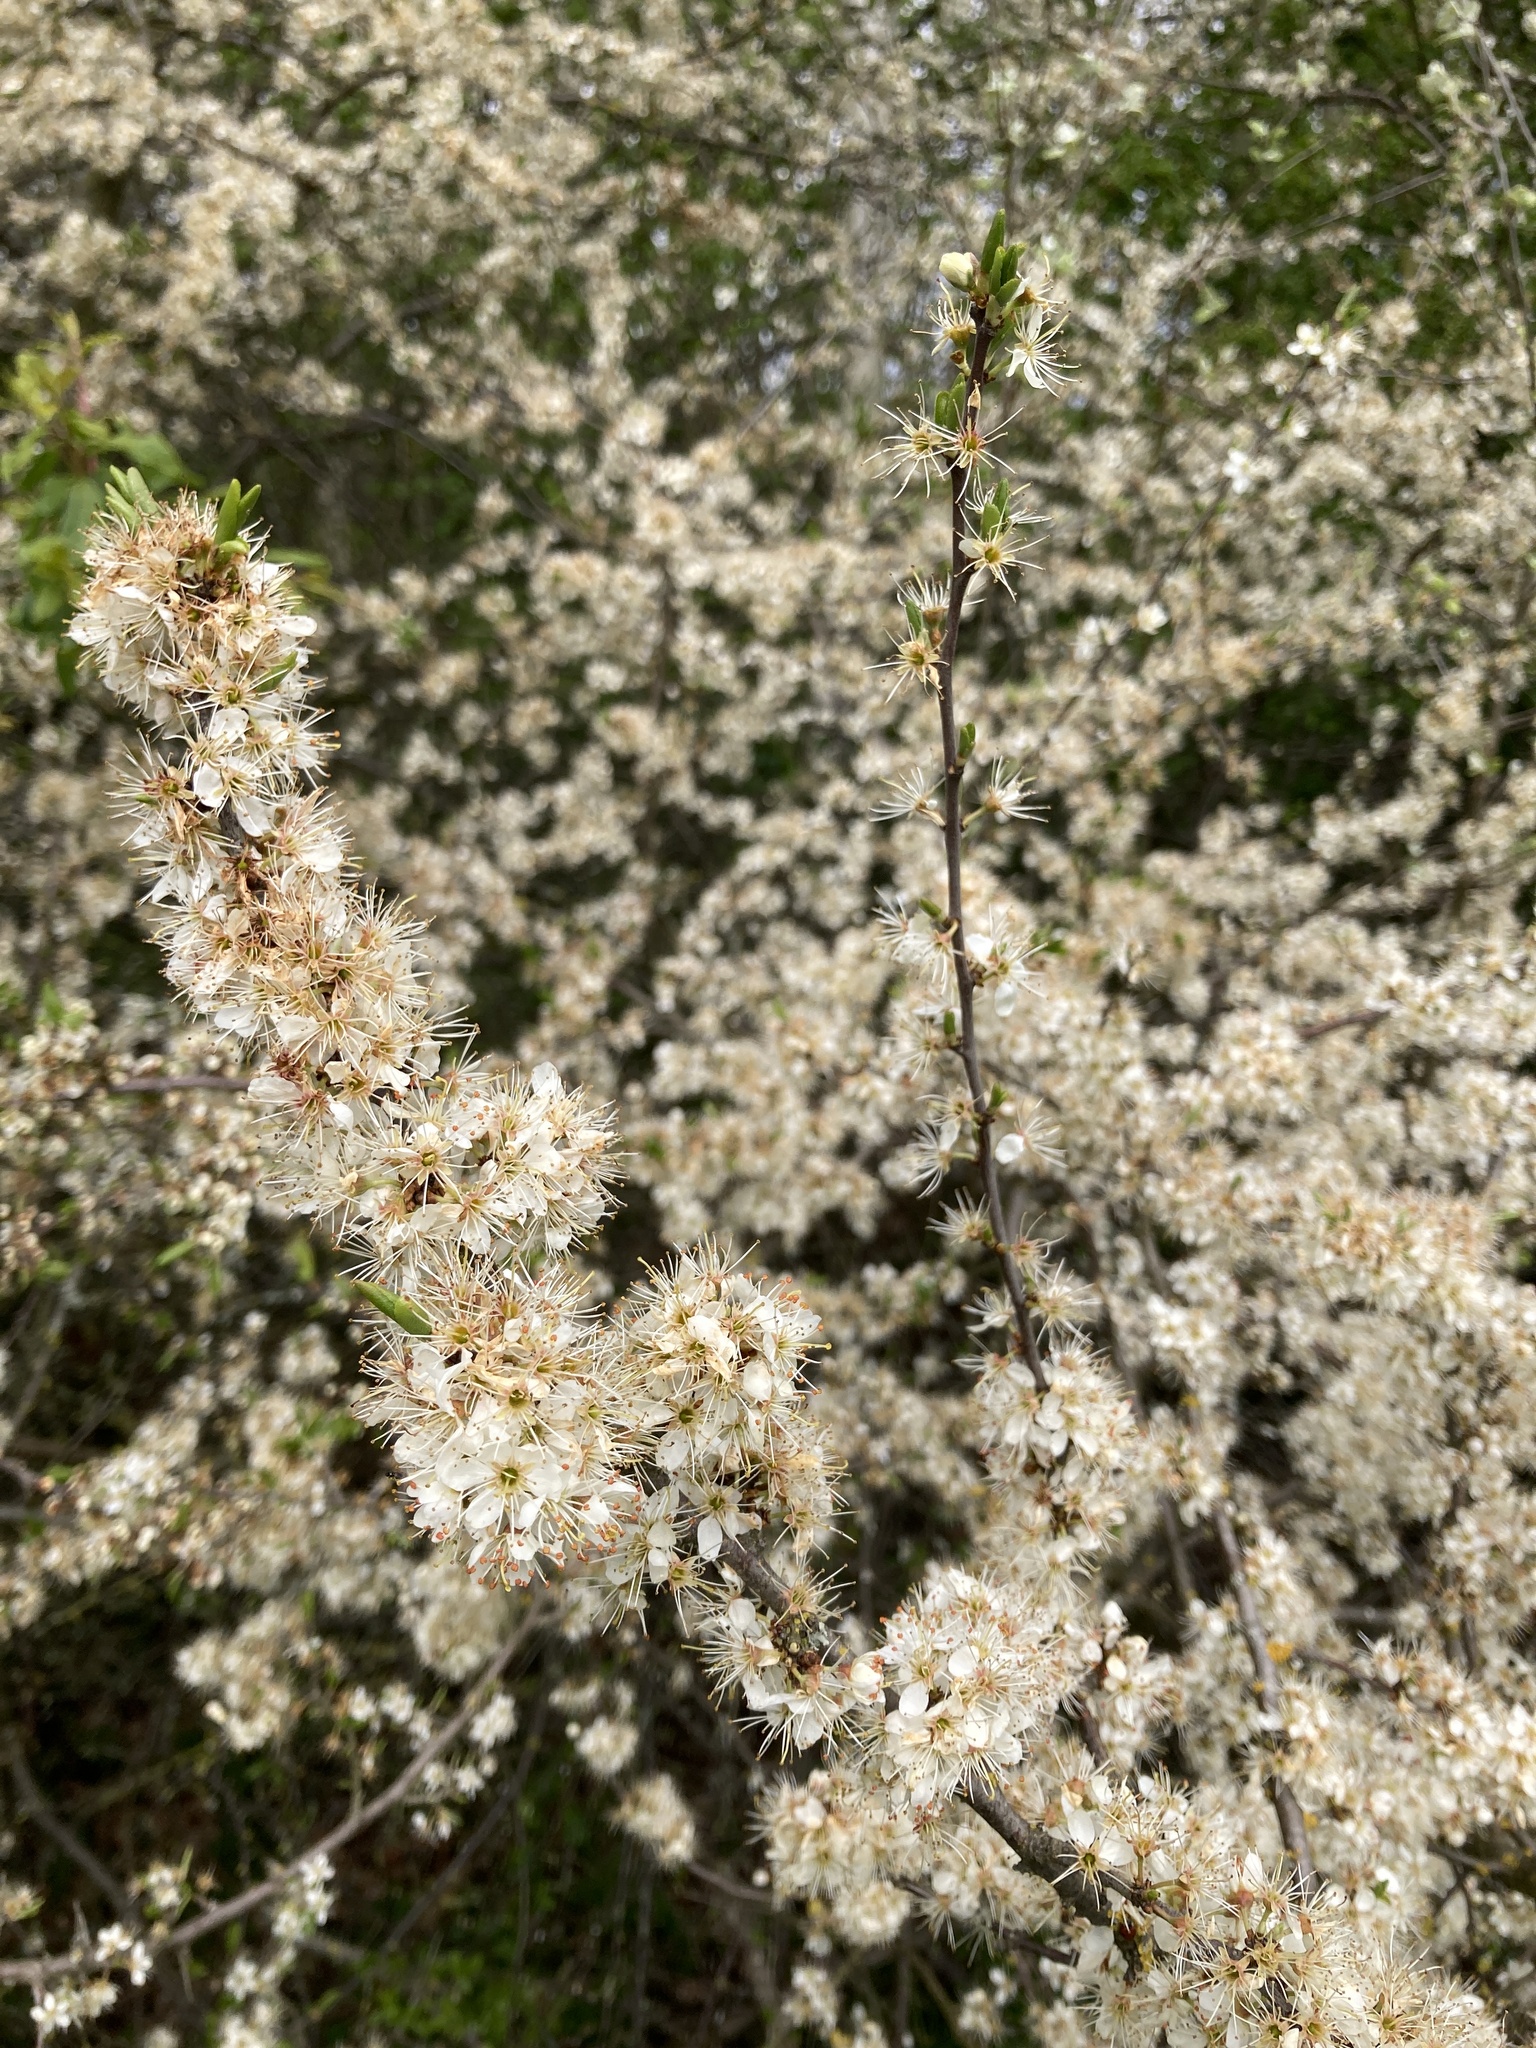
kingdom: Plantae
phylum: Tracheophyta
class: Magnoliopsida
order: Rosales
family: Rosaceae
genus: Prunus
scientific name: Prunus spinosa
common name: Blackthorn
